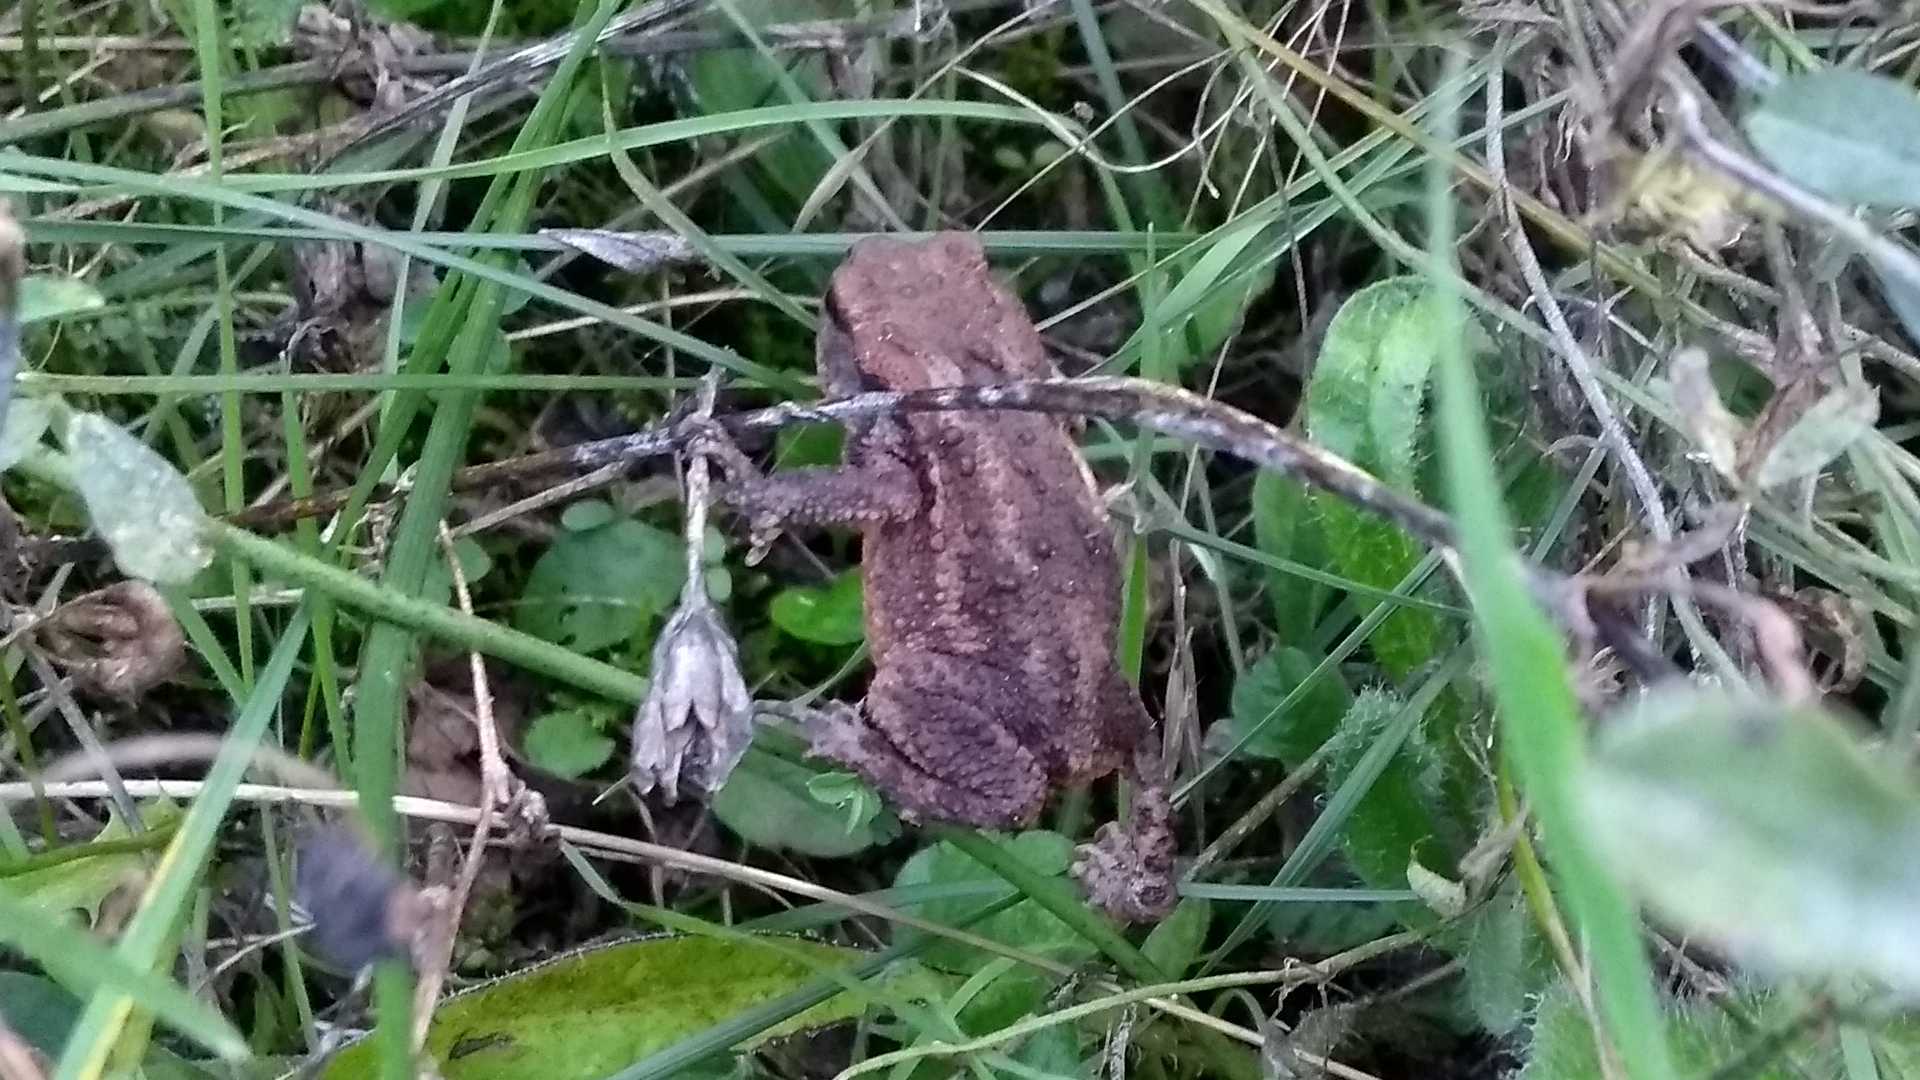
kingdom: Animalia
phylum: Chordata
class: Amphibia
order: Anura
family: Bufonidae
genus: Bufo
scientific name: Bufo bufo
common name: Common toad
